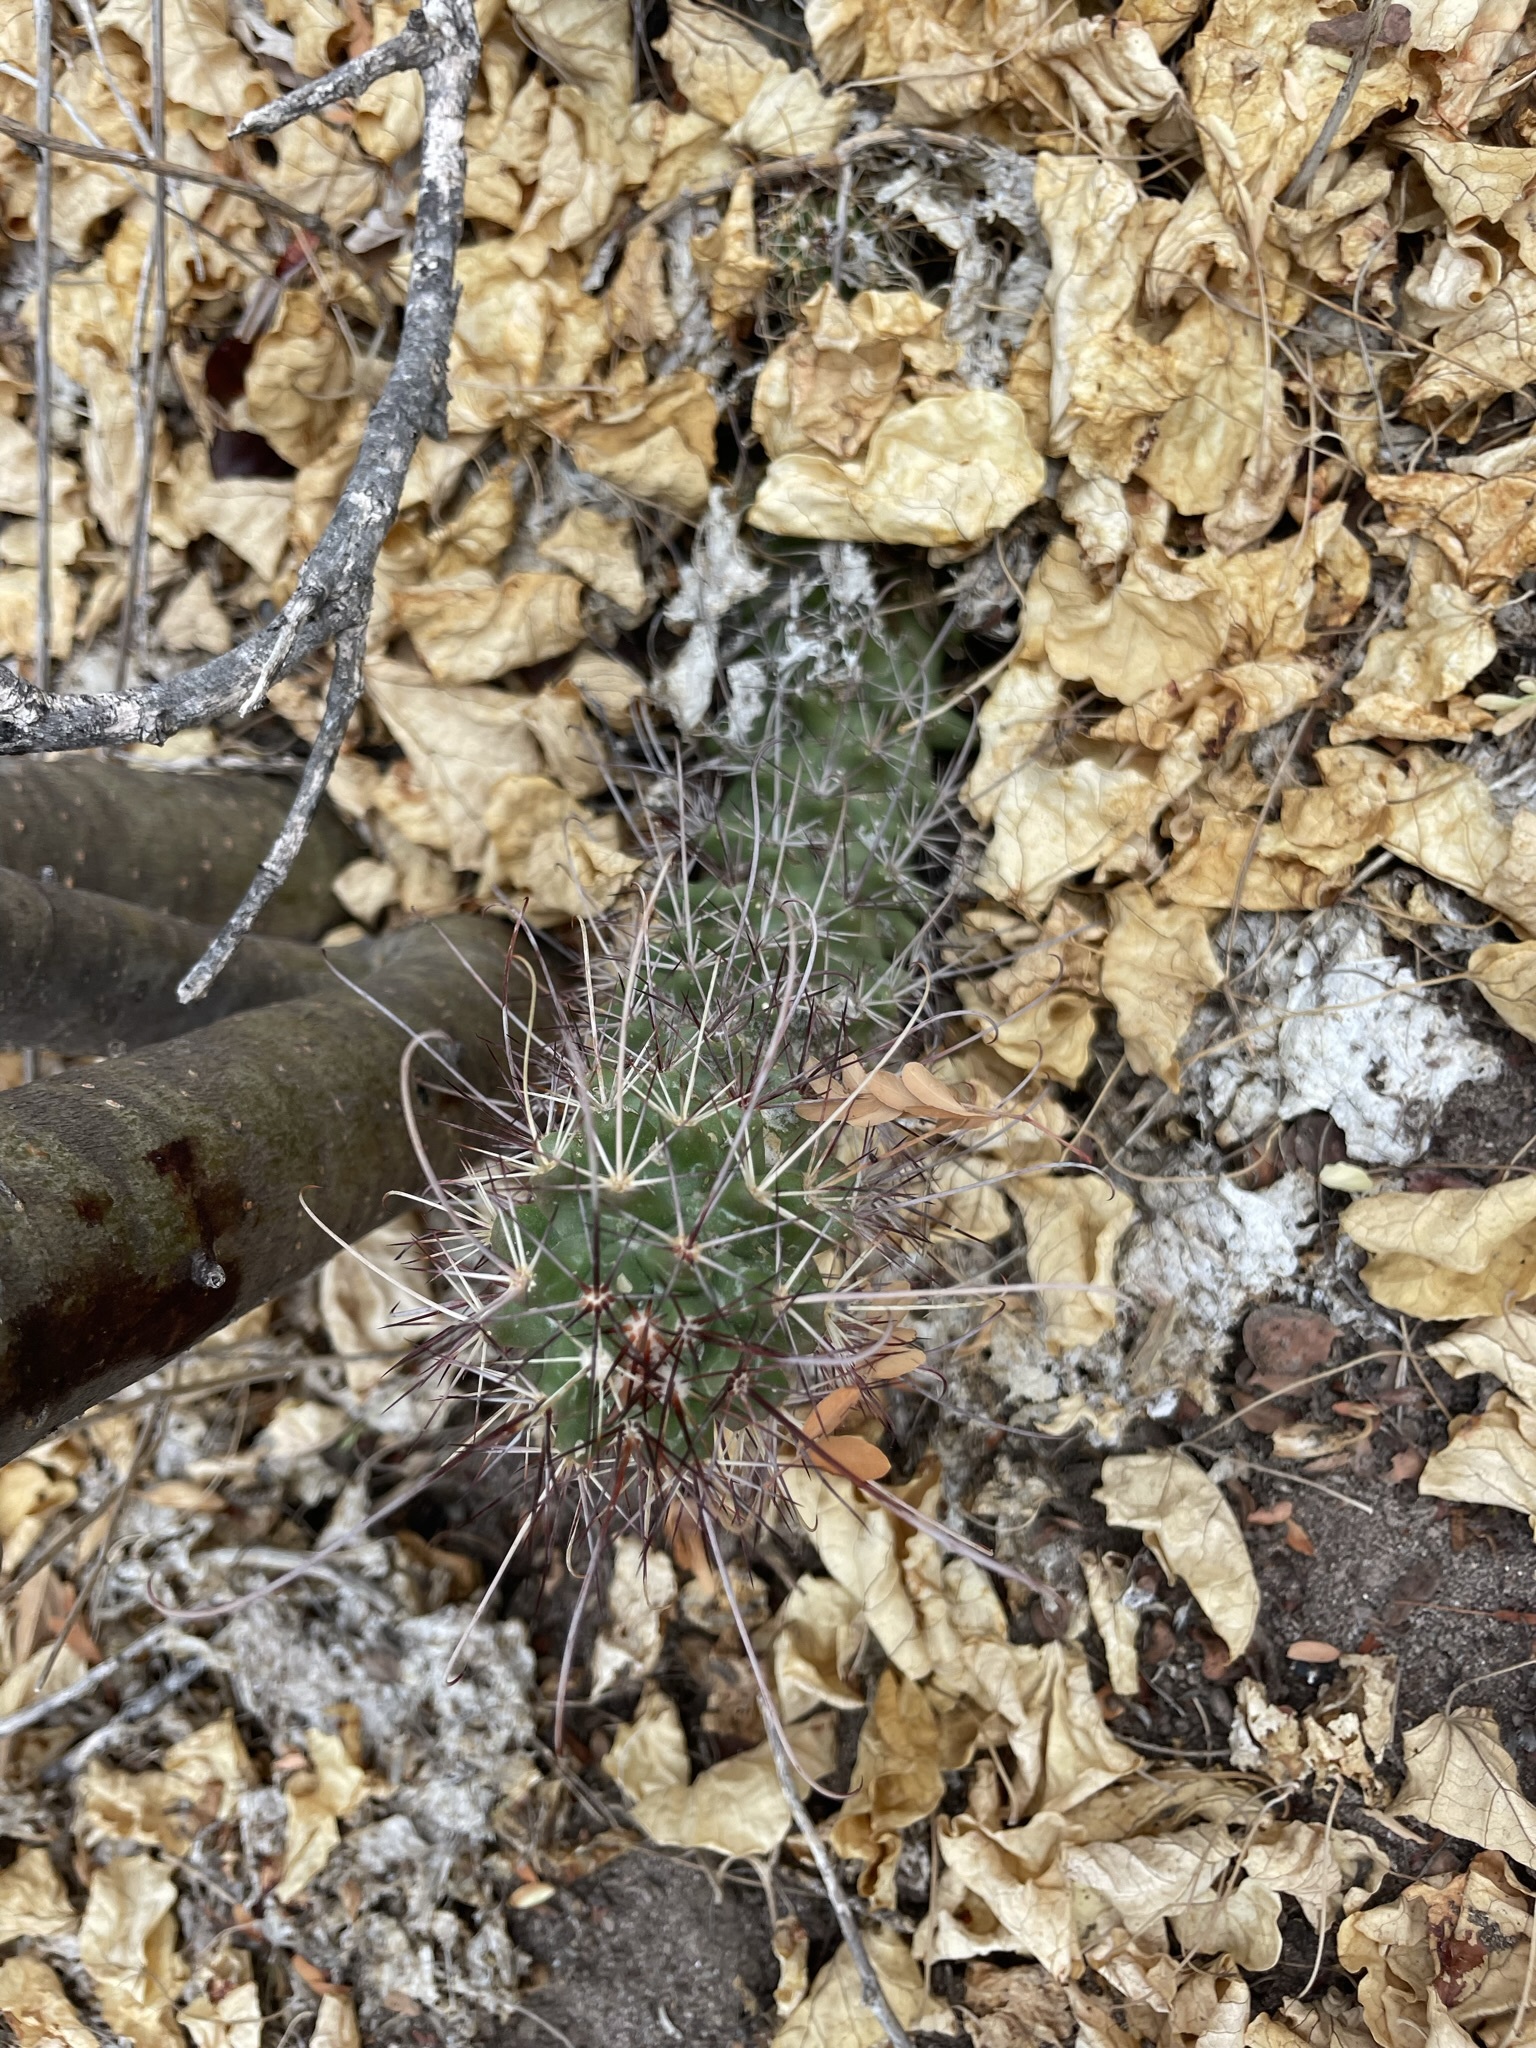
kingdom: Plantae
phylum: Tracheophyta
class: Magnoliopsida
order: Caryophyllales
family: Cactaceae
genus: Cochemiea
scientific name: Cochemiea poselgeri
